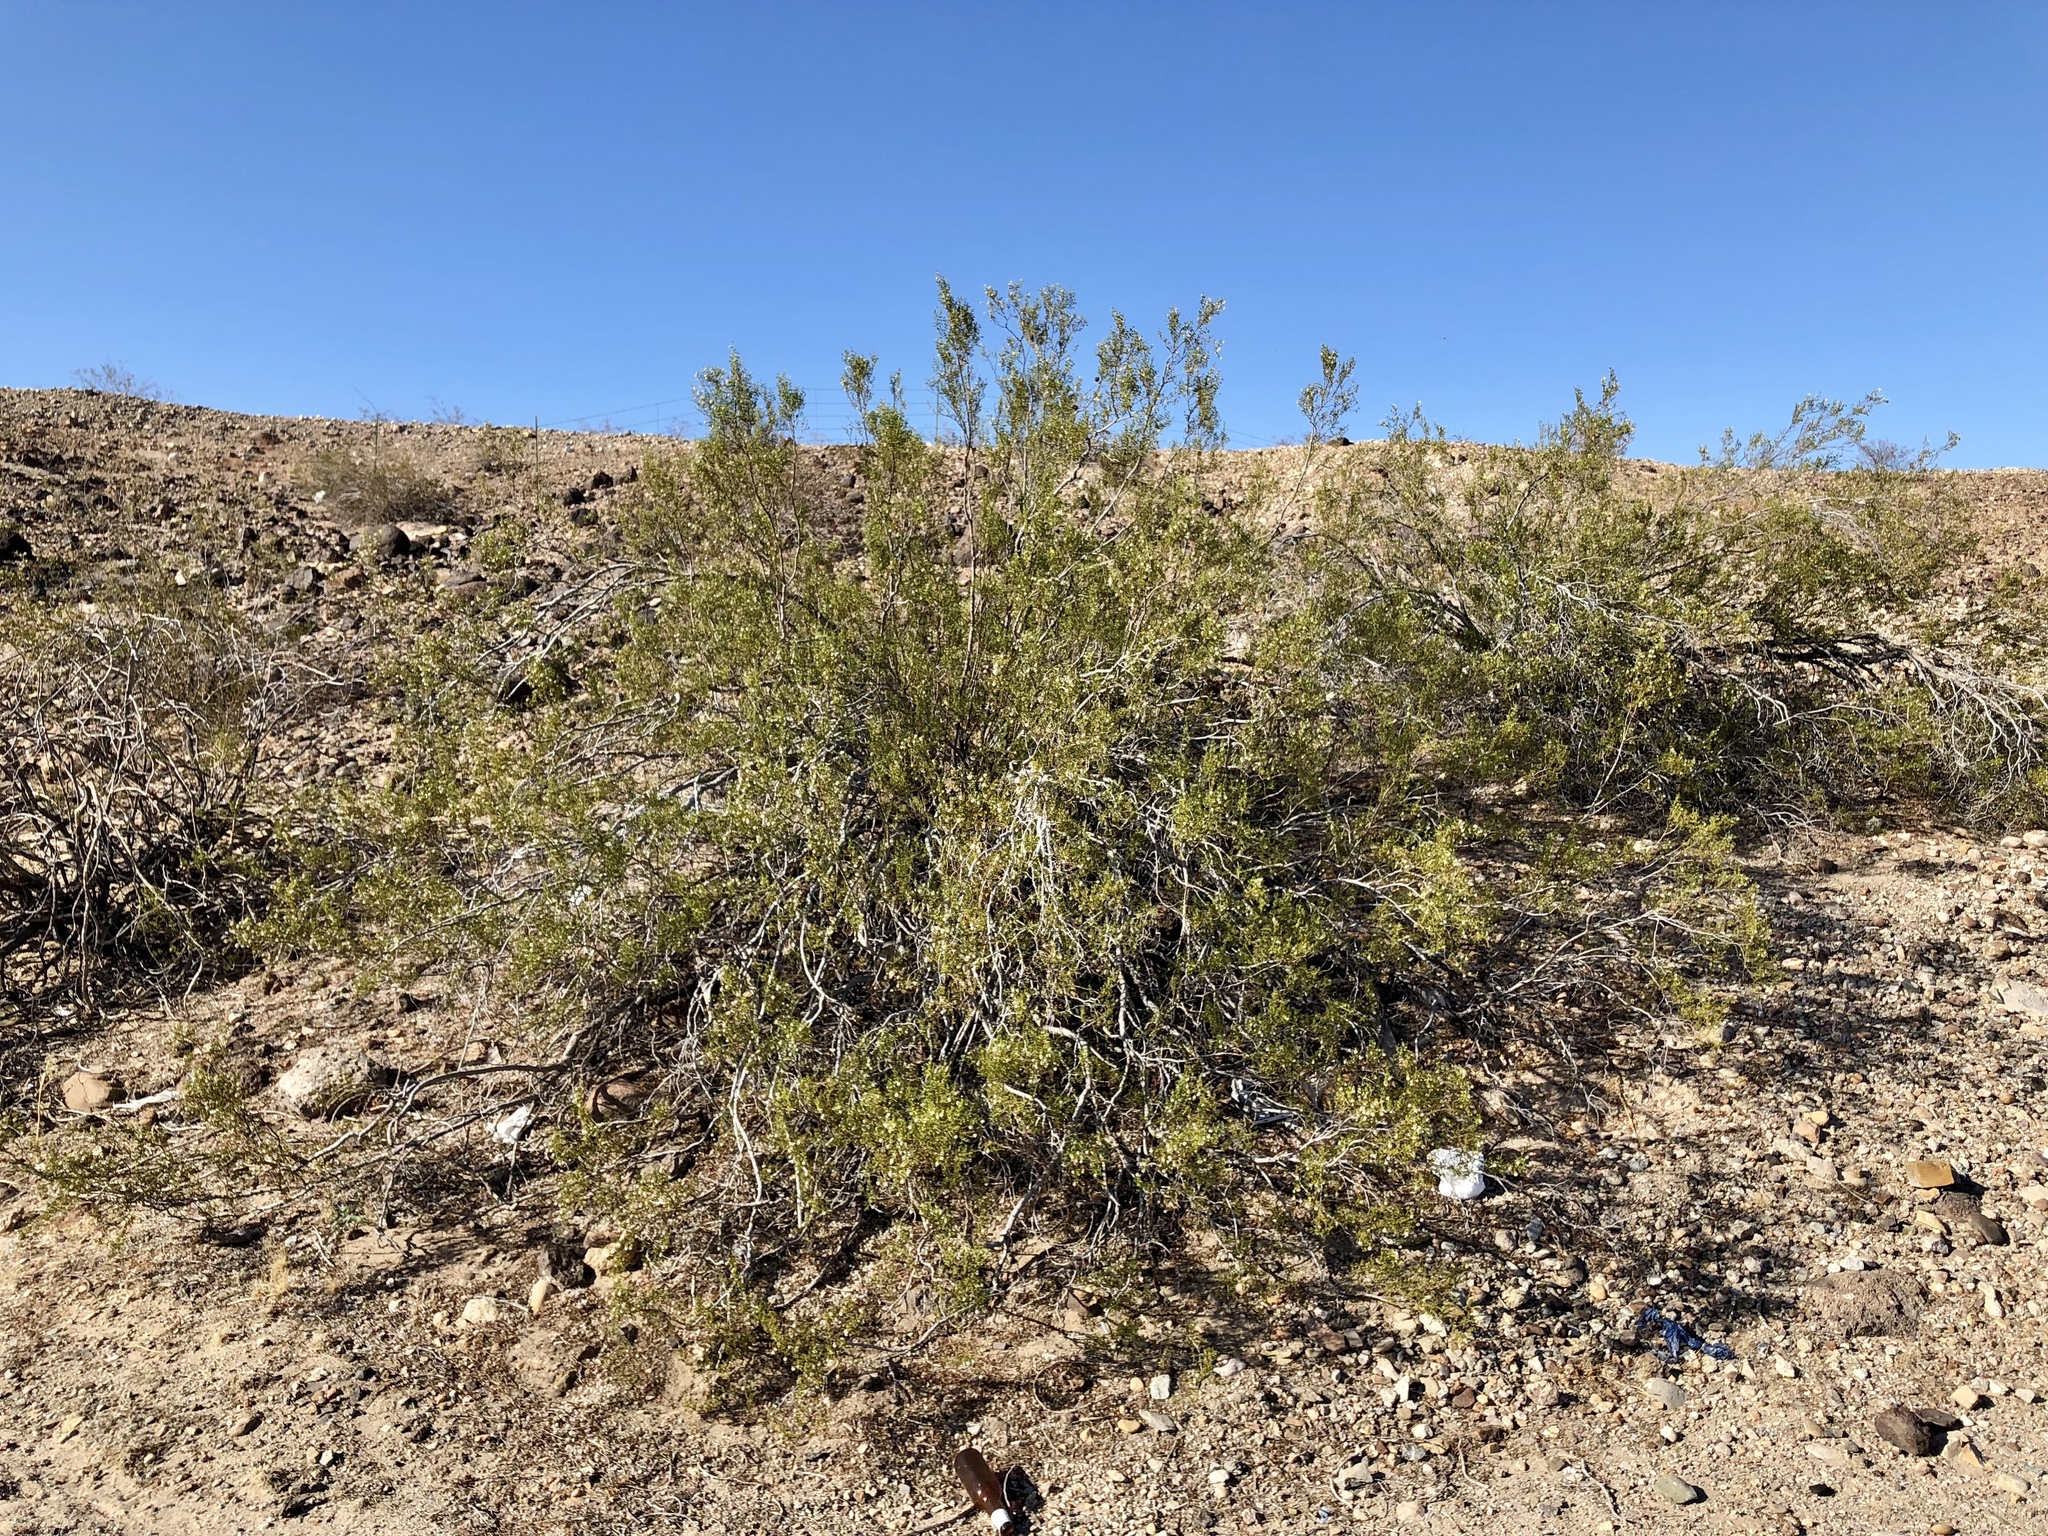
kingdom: Plantae
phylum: Tracheophyta
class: Magnoliopsida
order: Zygophyllales
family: Zygophyllaceae
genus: Larrea
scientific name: Larrea tridentata
